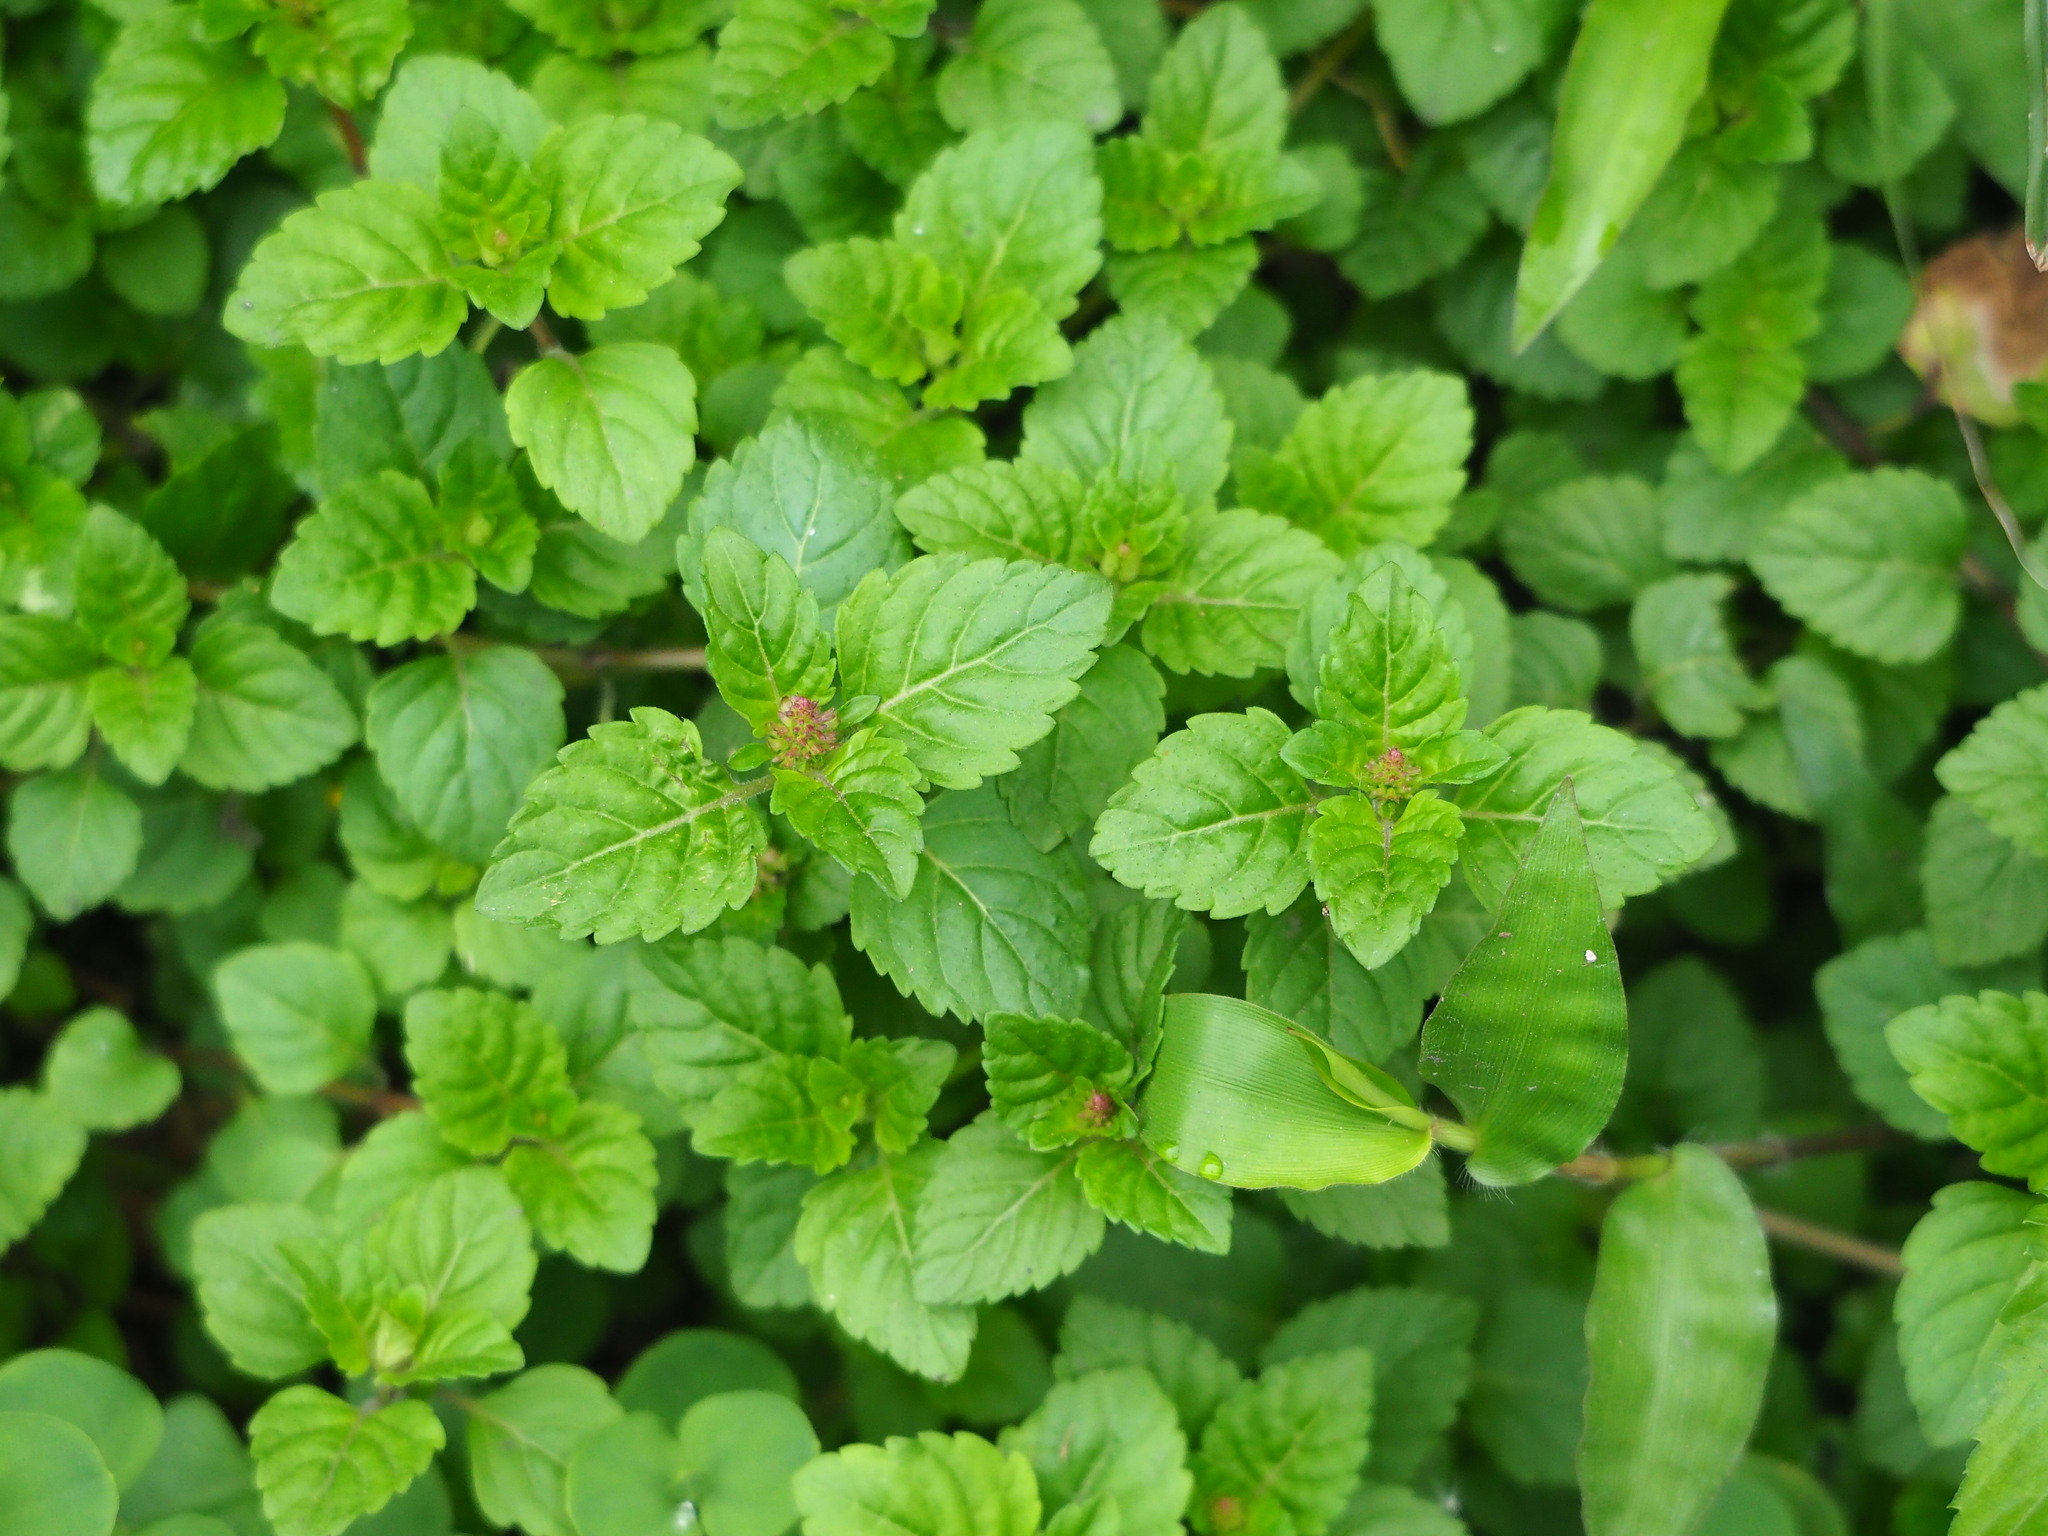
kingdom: Plantae
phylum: Tracheophyta
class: Magnoliopsida
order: Lamiales
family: Lamiaceae
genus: Clinopodium
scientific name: Clinopodium gracile
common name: Slender wild basil
